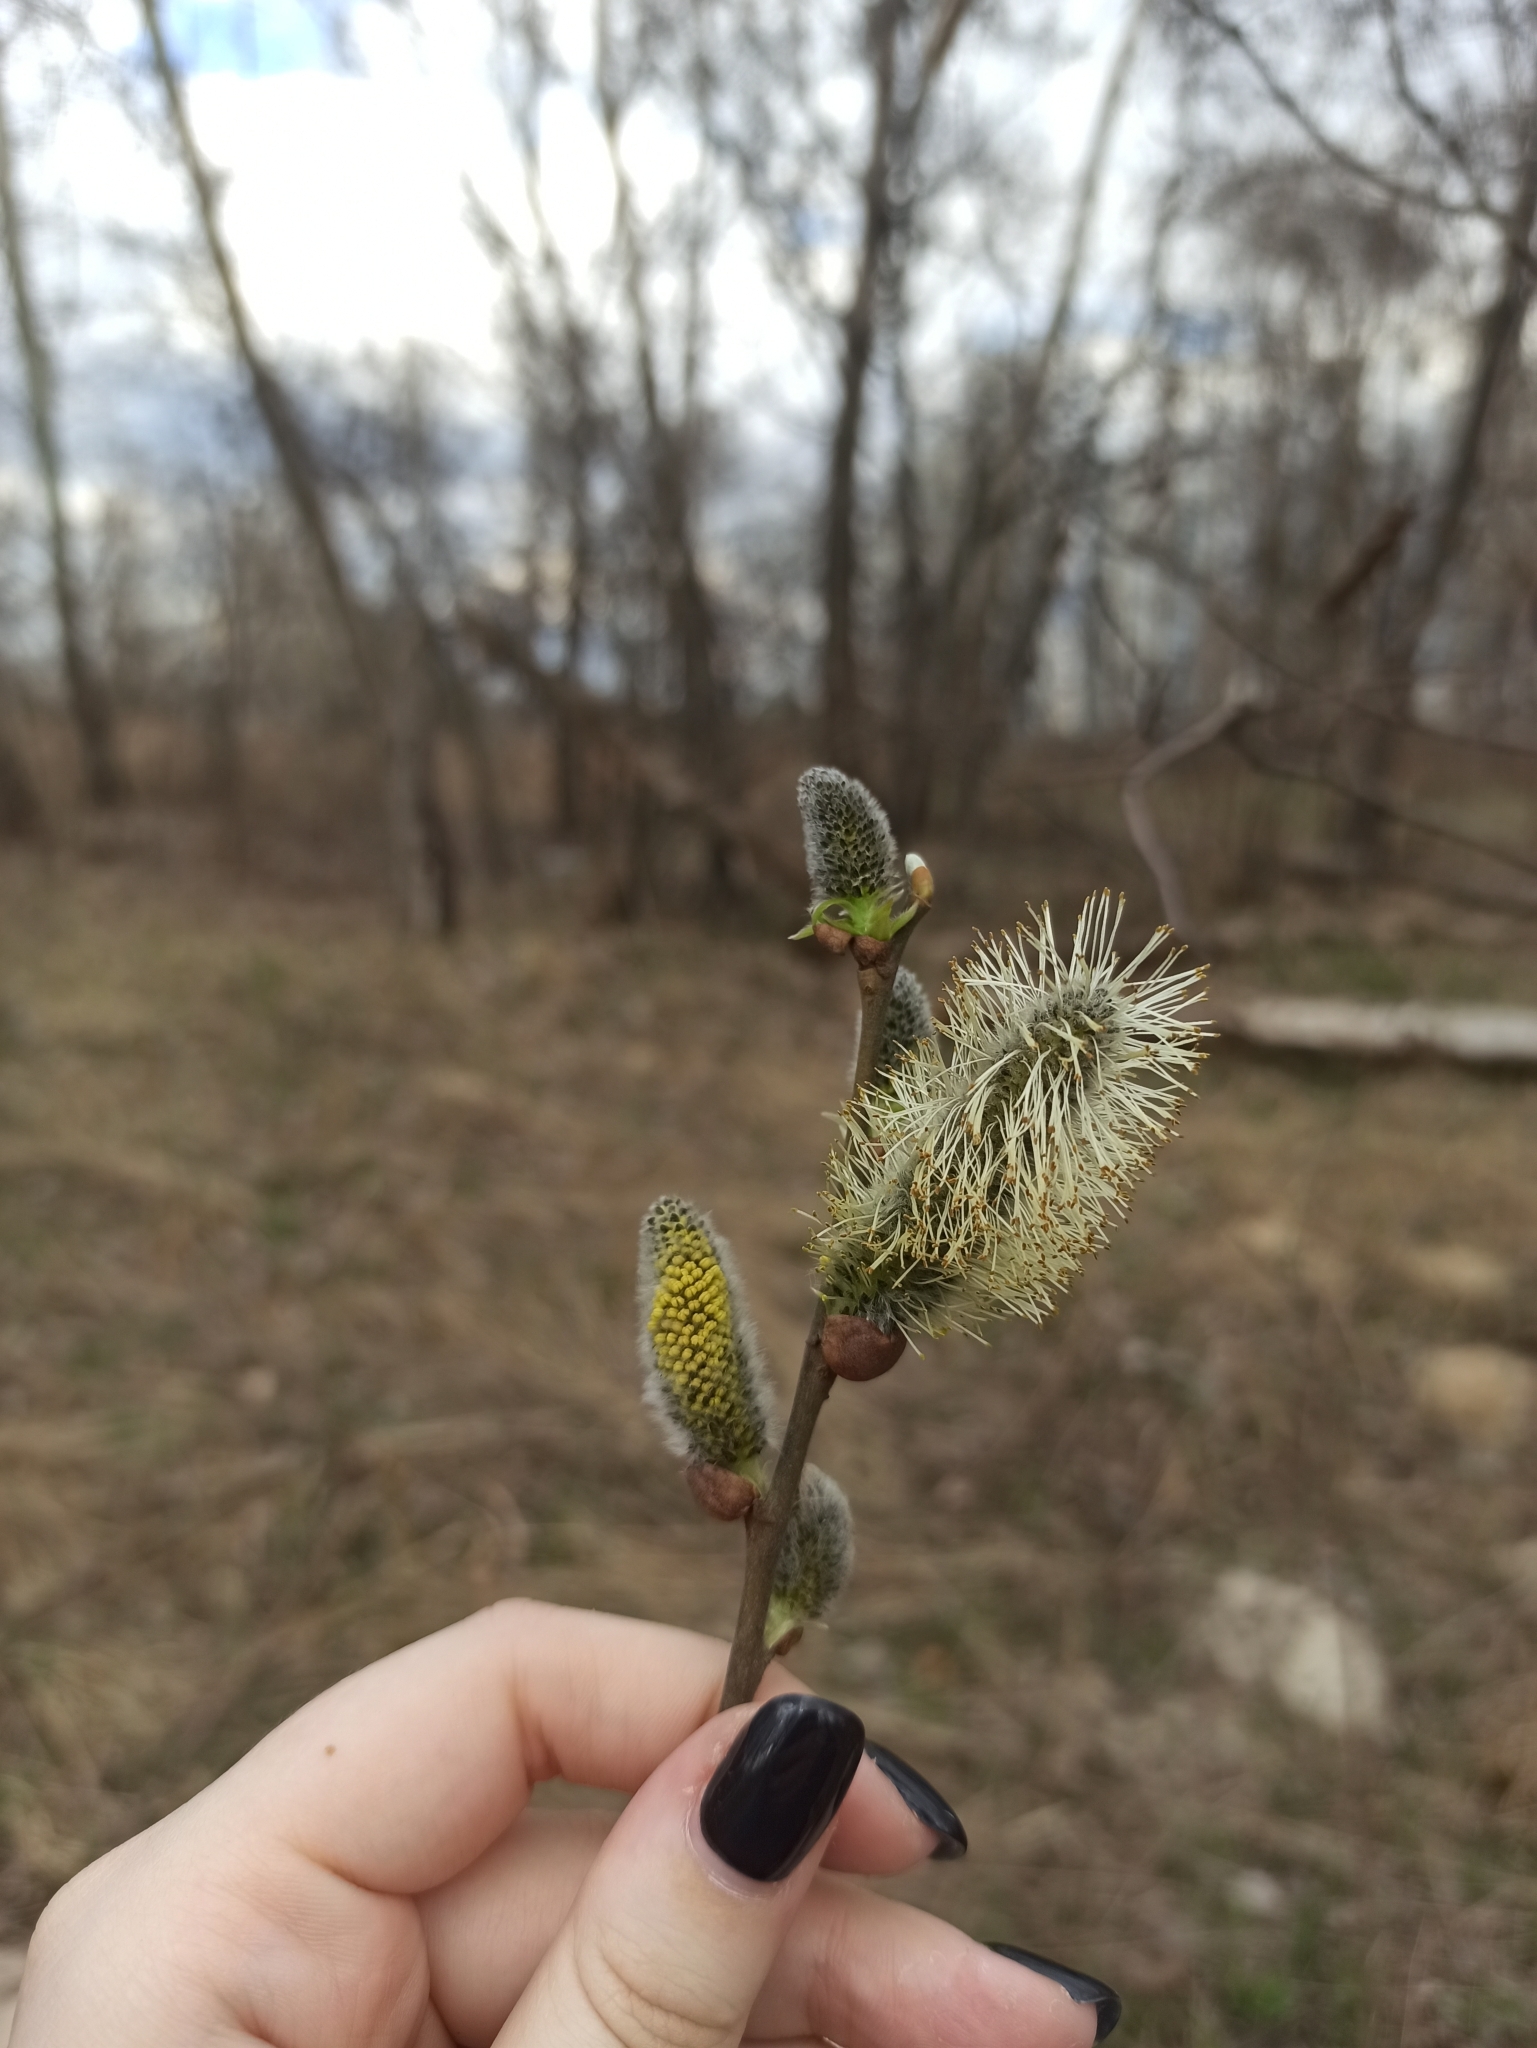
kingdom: Plantae
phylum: Tracheophyta
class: Magnoliopsida
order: Malpighiales
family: Salicaceae
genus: Salix
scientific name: Salix caprea
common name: Goat willow
